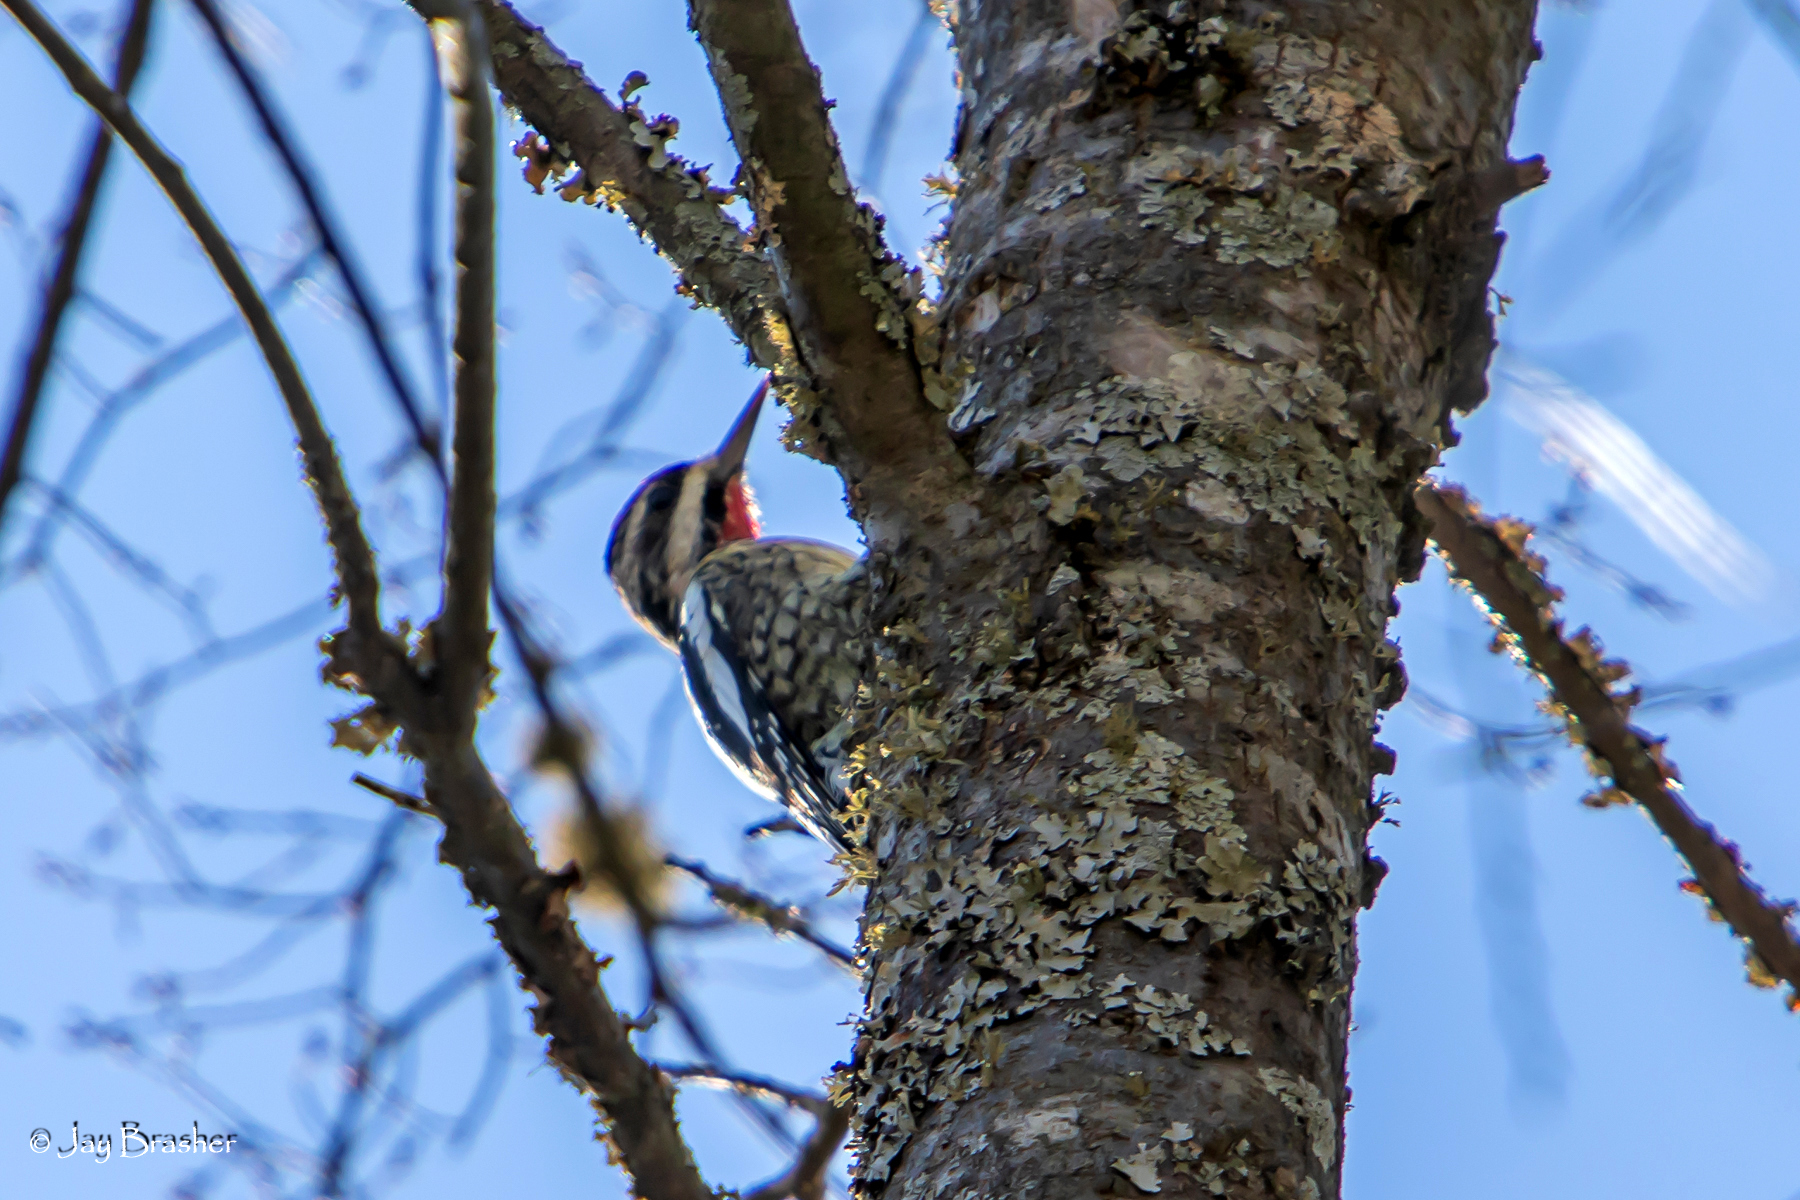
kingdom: Animalia
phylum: Chordata
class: Aves
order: Piciformes
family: Picidae
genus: Sphyrapicus
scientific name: Sphyrapicus varius
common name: Yellow-bellied sapsucker
